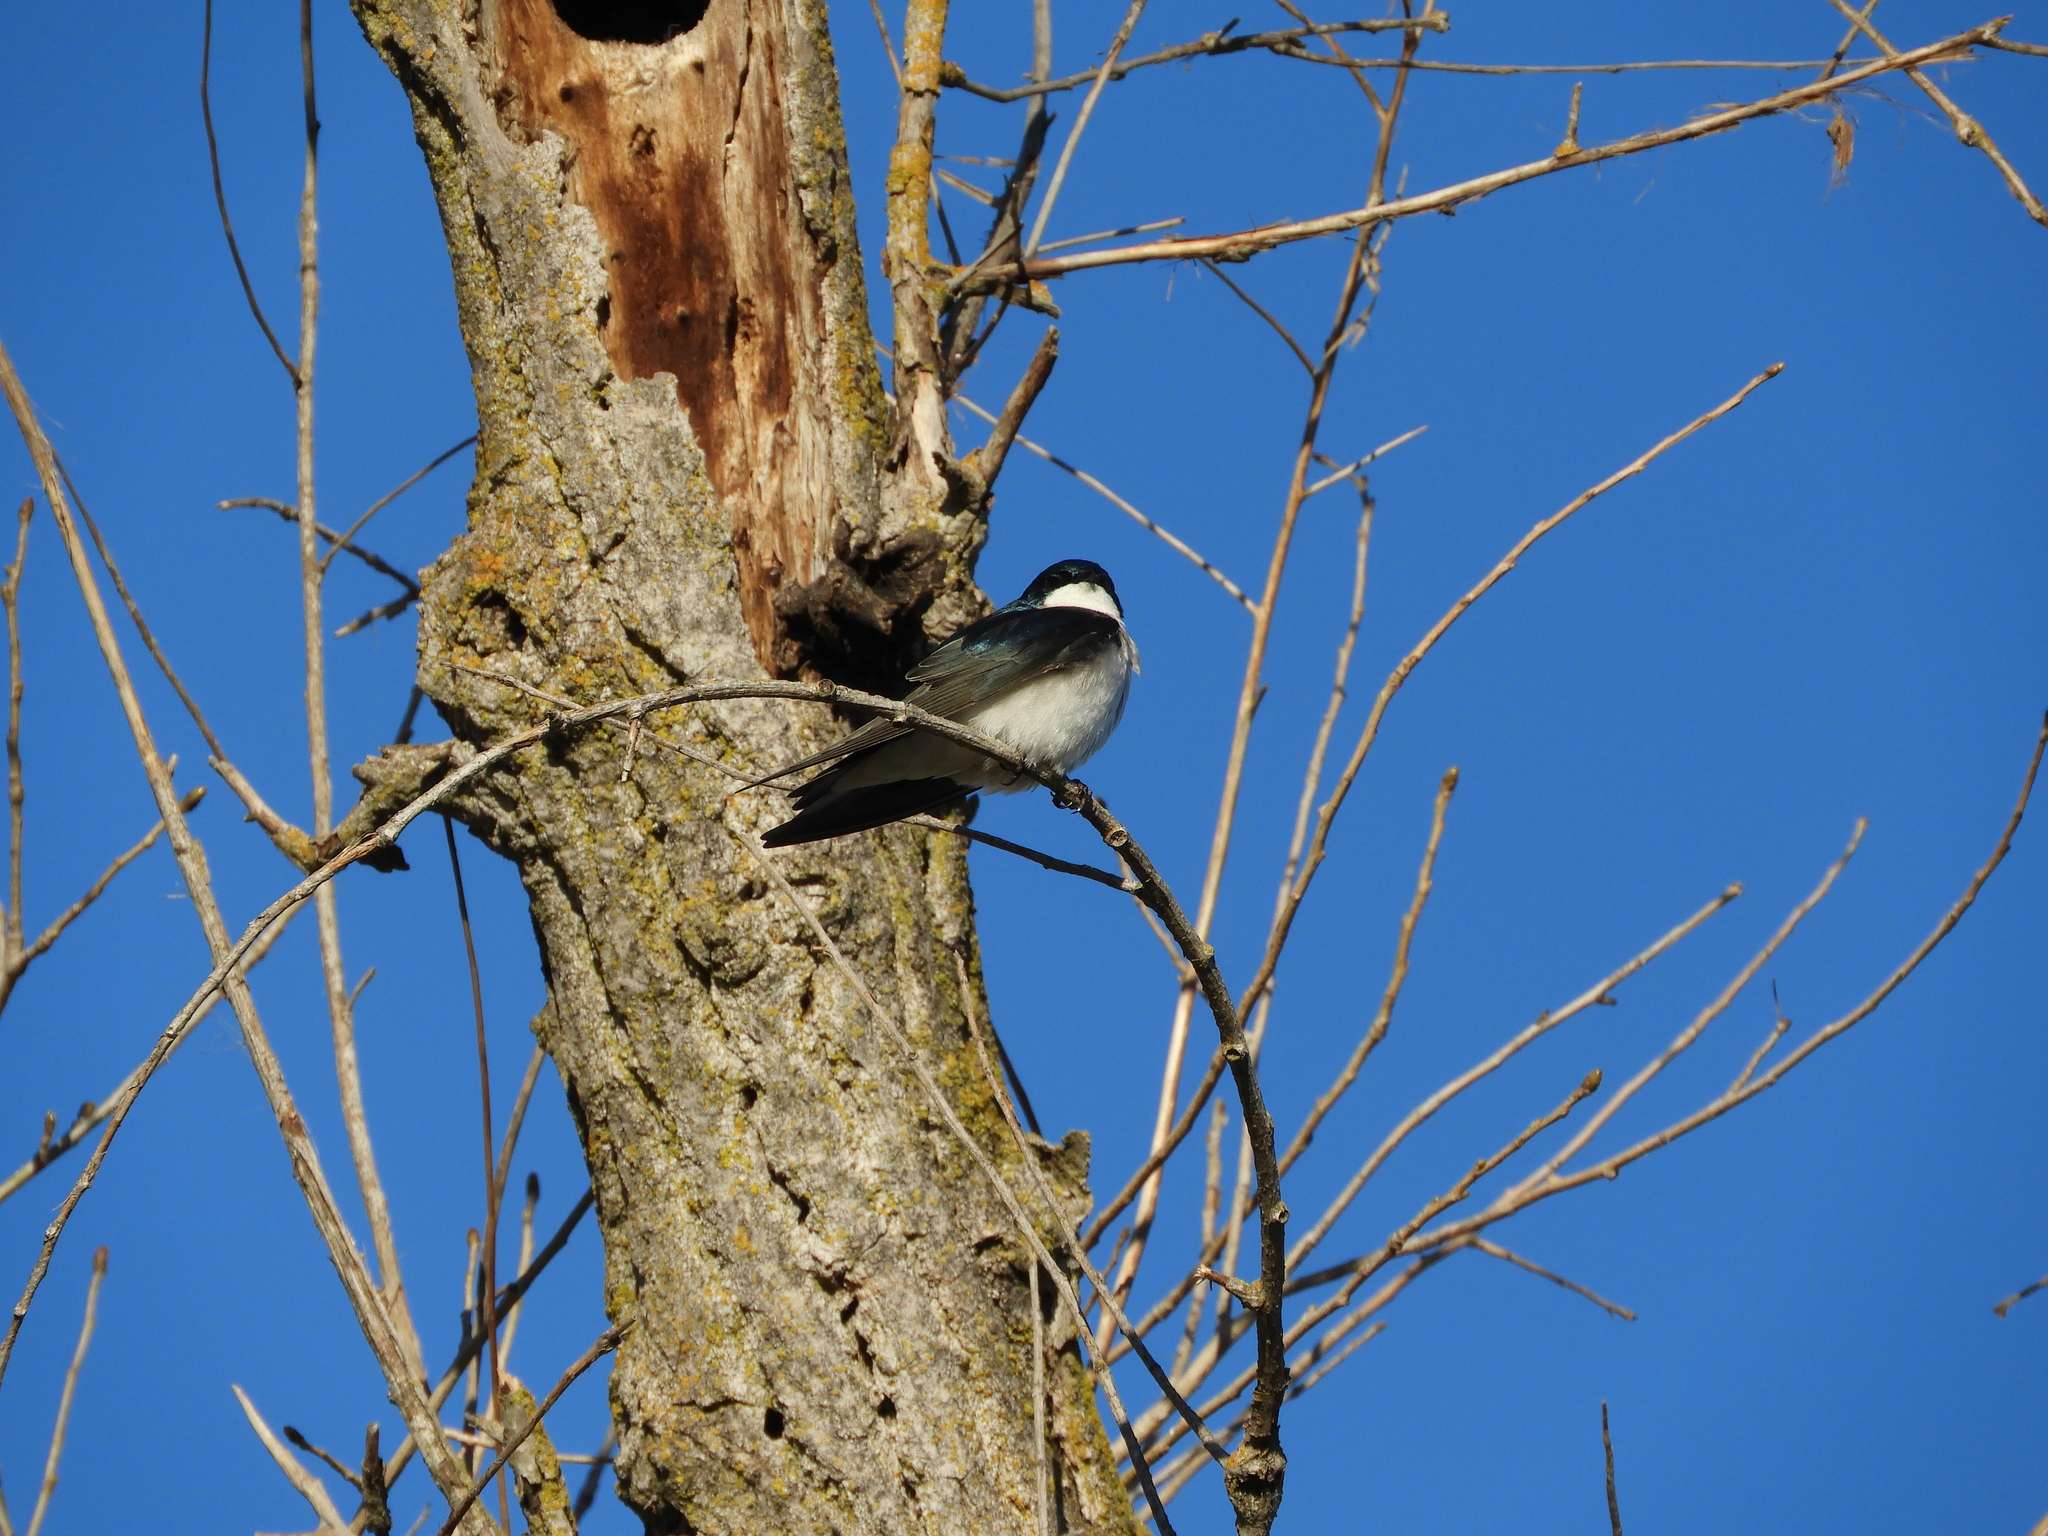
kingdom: Animalia
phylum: Chordata
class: Aves
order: Passeriformes
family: Hirundinidae
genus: Tachycineta
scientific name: Tachycineta bicolor
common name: Tree swallow
